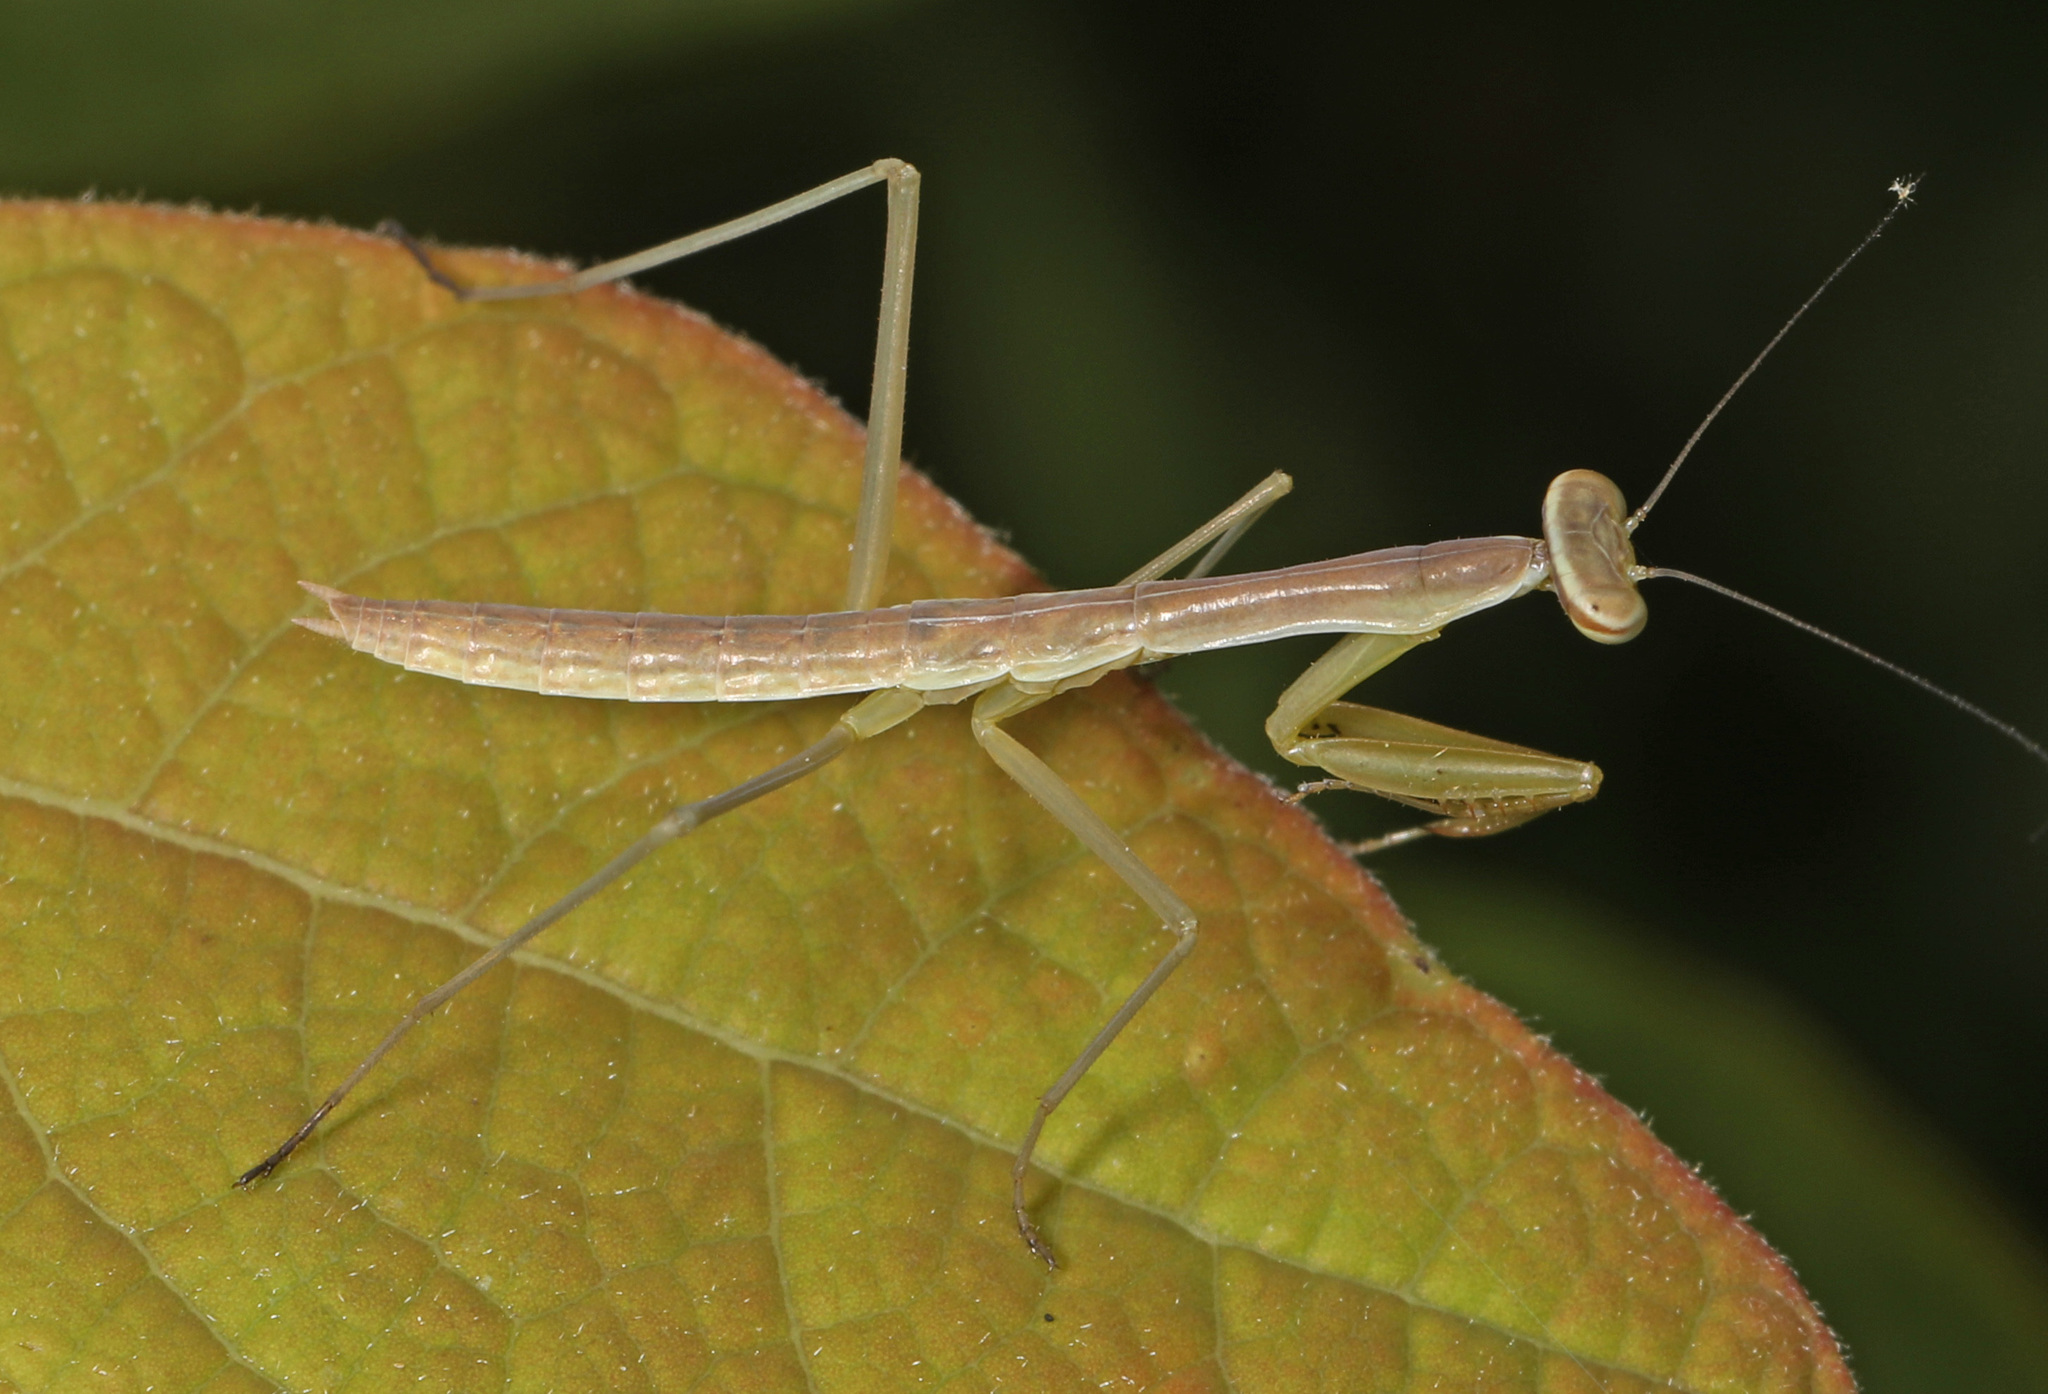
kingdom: Animalia
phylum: Arthropoda
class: Insecta
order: Mantodea
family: Mantidae
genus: Tenodera
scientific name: Tenodera sinensis
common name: Chinese mantis
